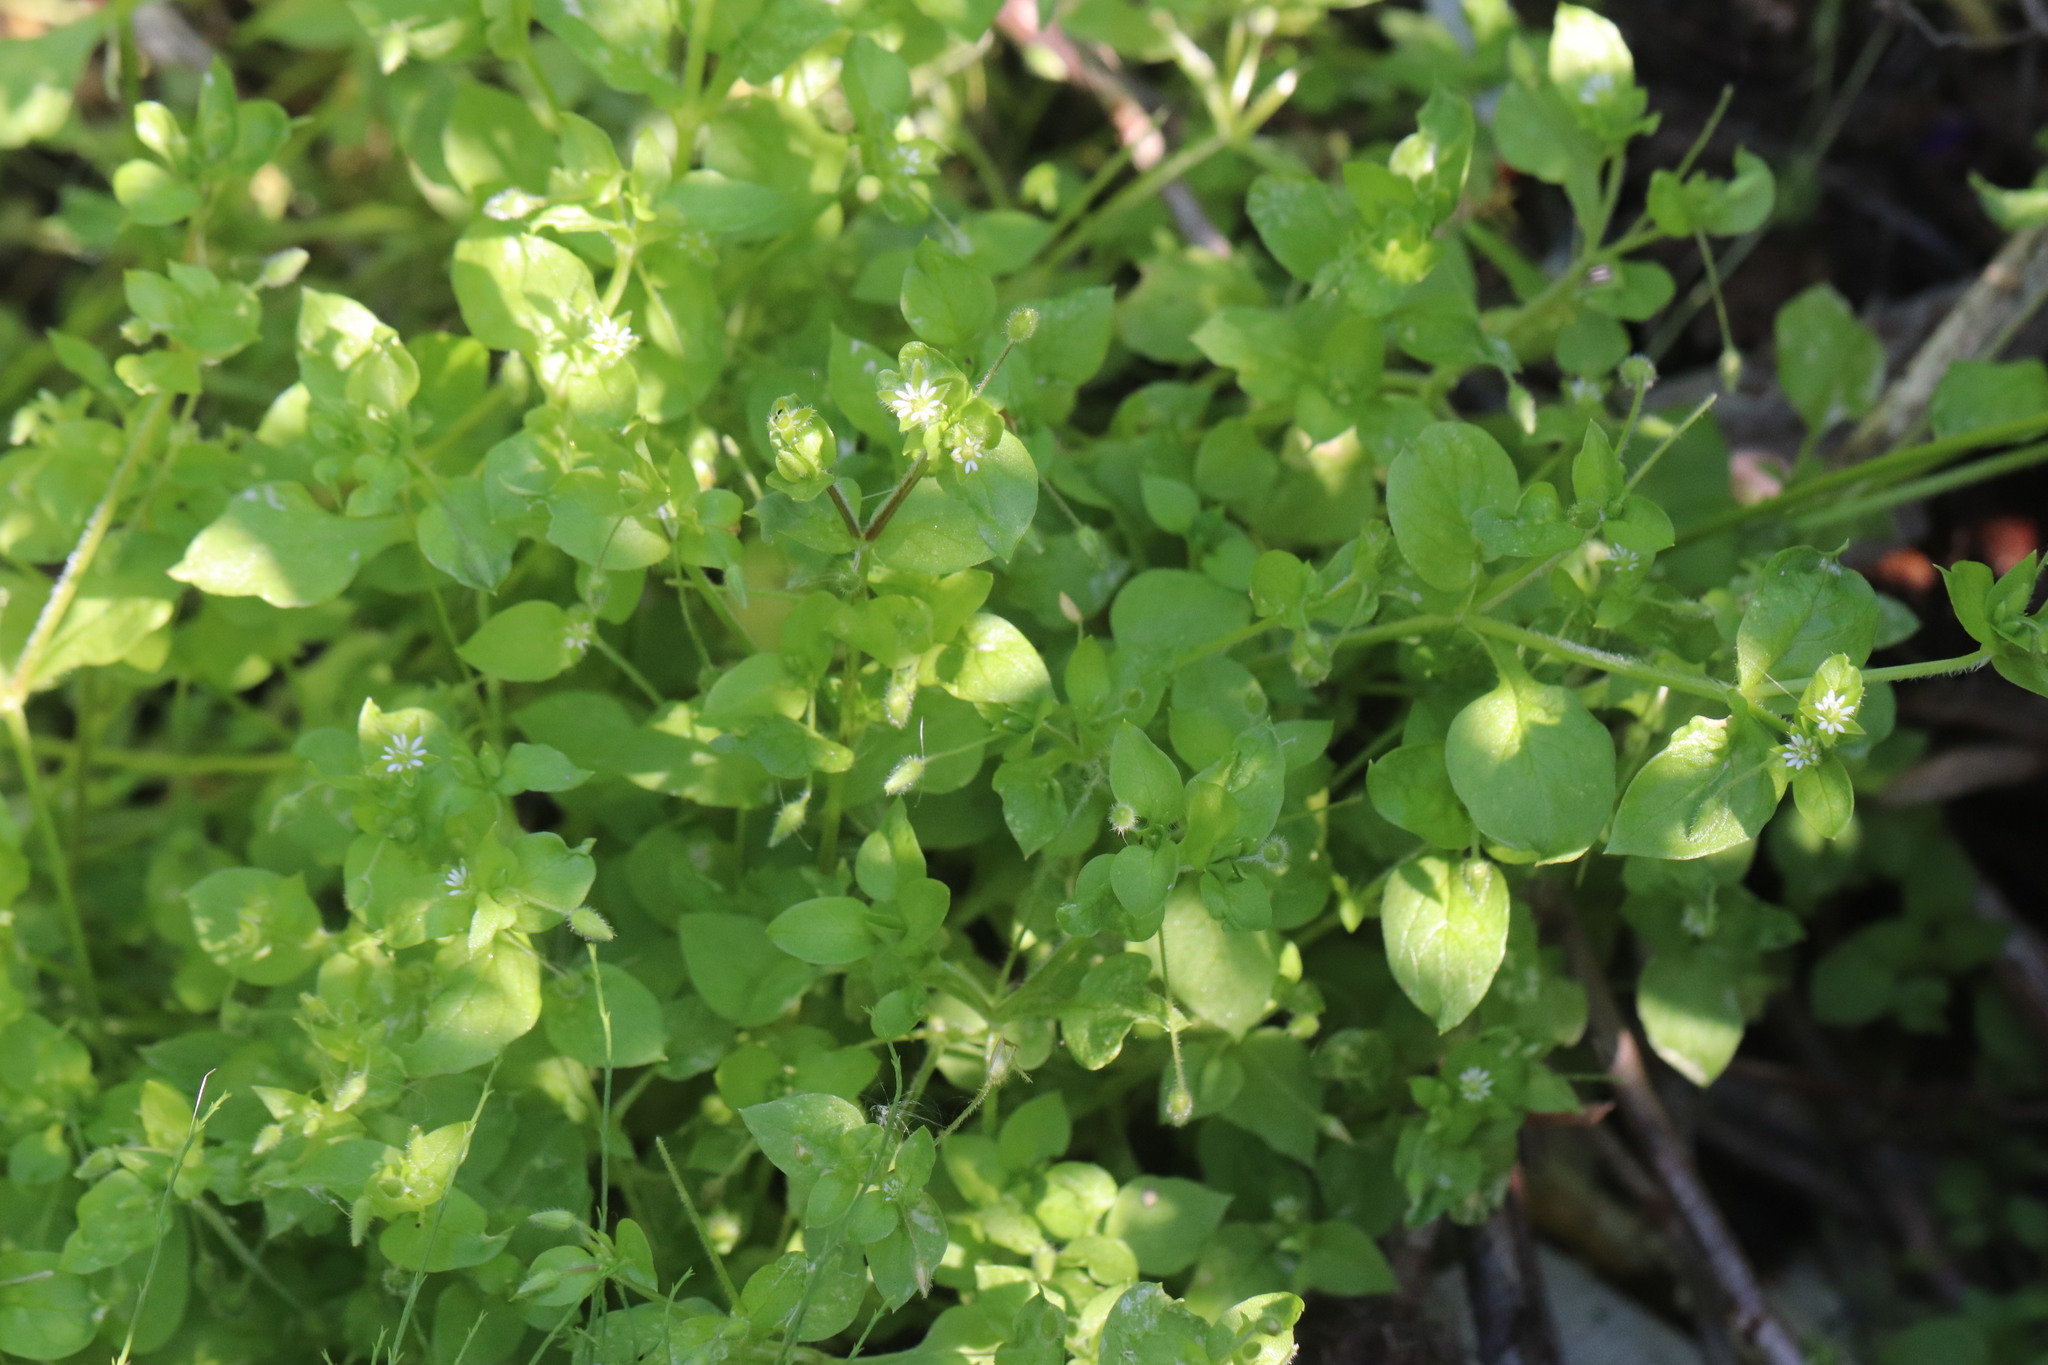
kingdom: Plantae
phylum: Tracheophyta
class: Magnoliopsida
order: Caryophyllales
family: Caryophyllaceae
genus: Stellaria
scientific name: Stellaria media
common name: Common chickweed
